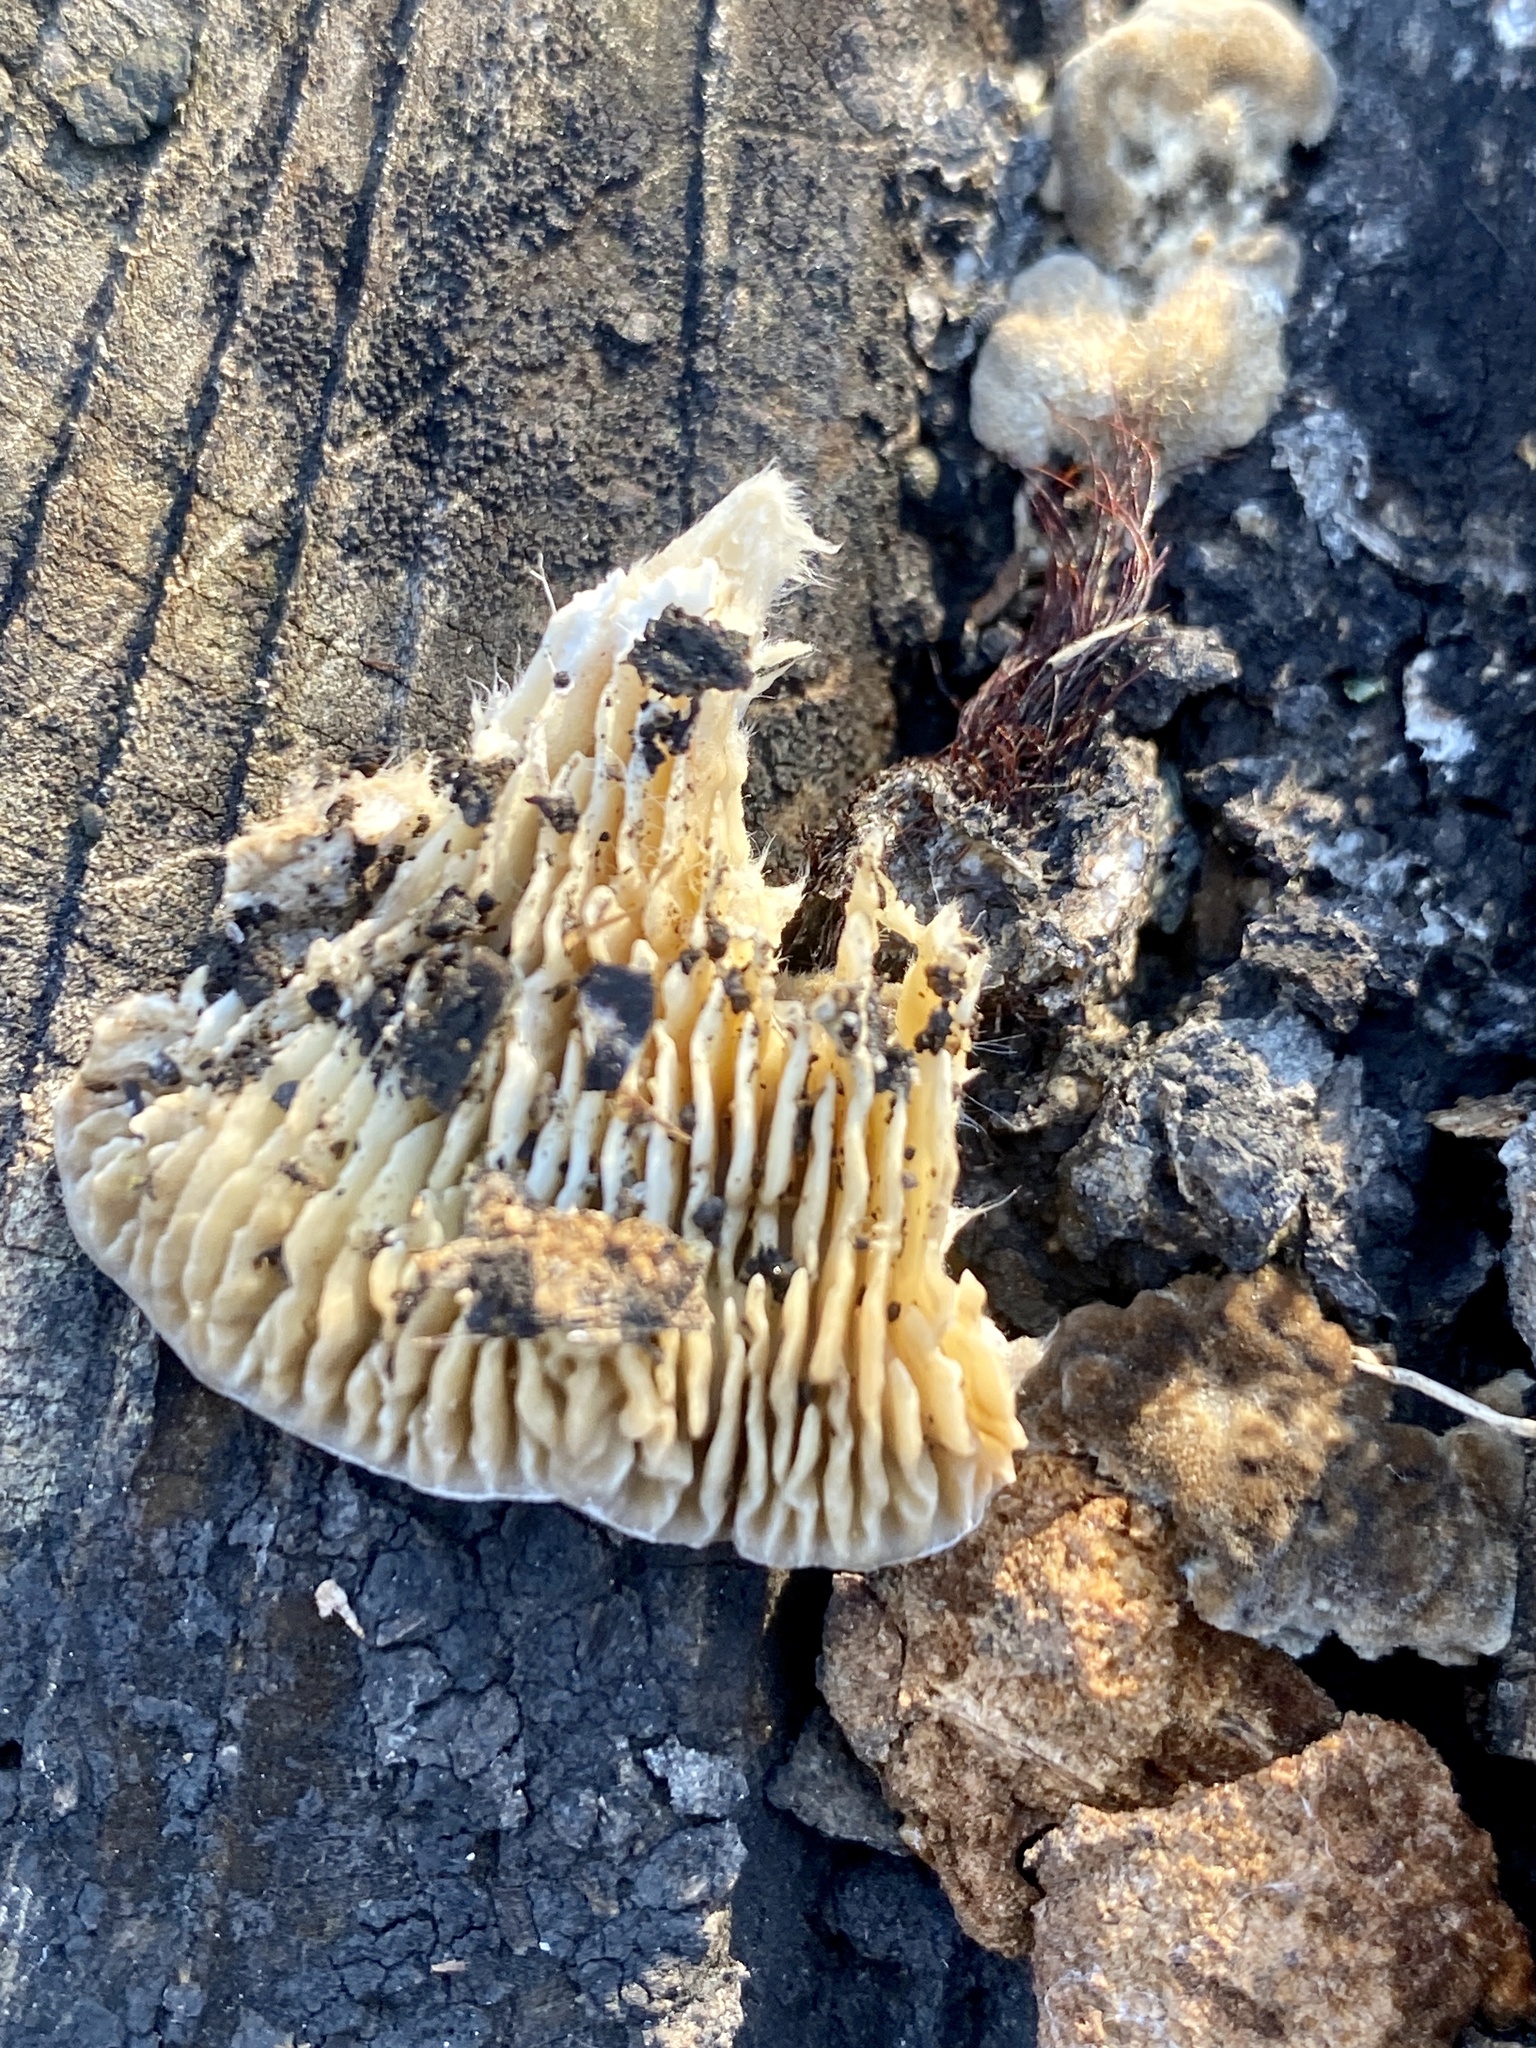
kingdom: Fungi
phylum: Basidiomycota
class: Agaricomycetes
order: Polyporales
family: Polyporaceae
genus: Lenzites
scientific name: Lenzites betulinus
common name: Birch mazegill
